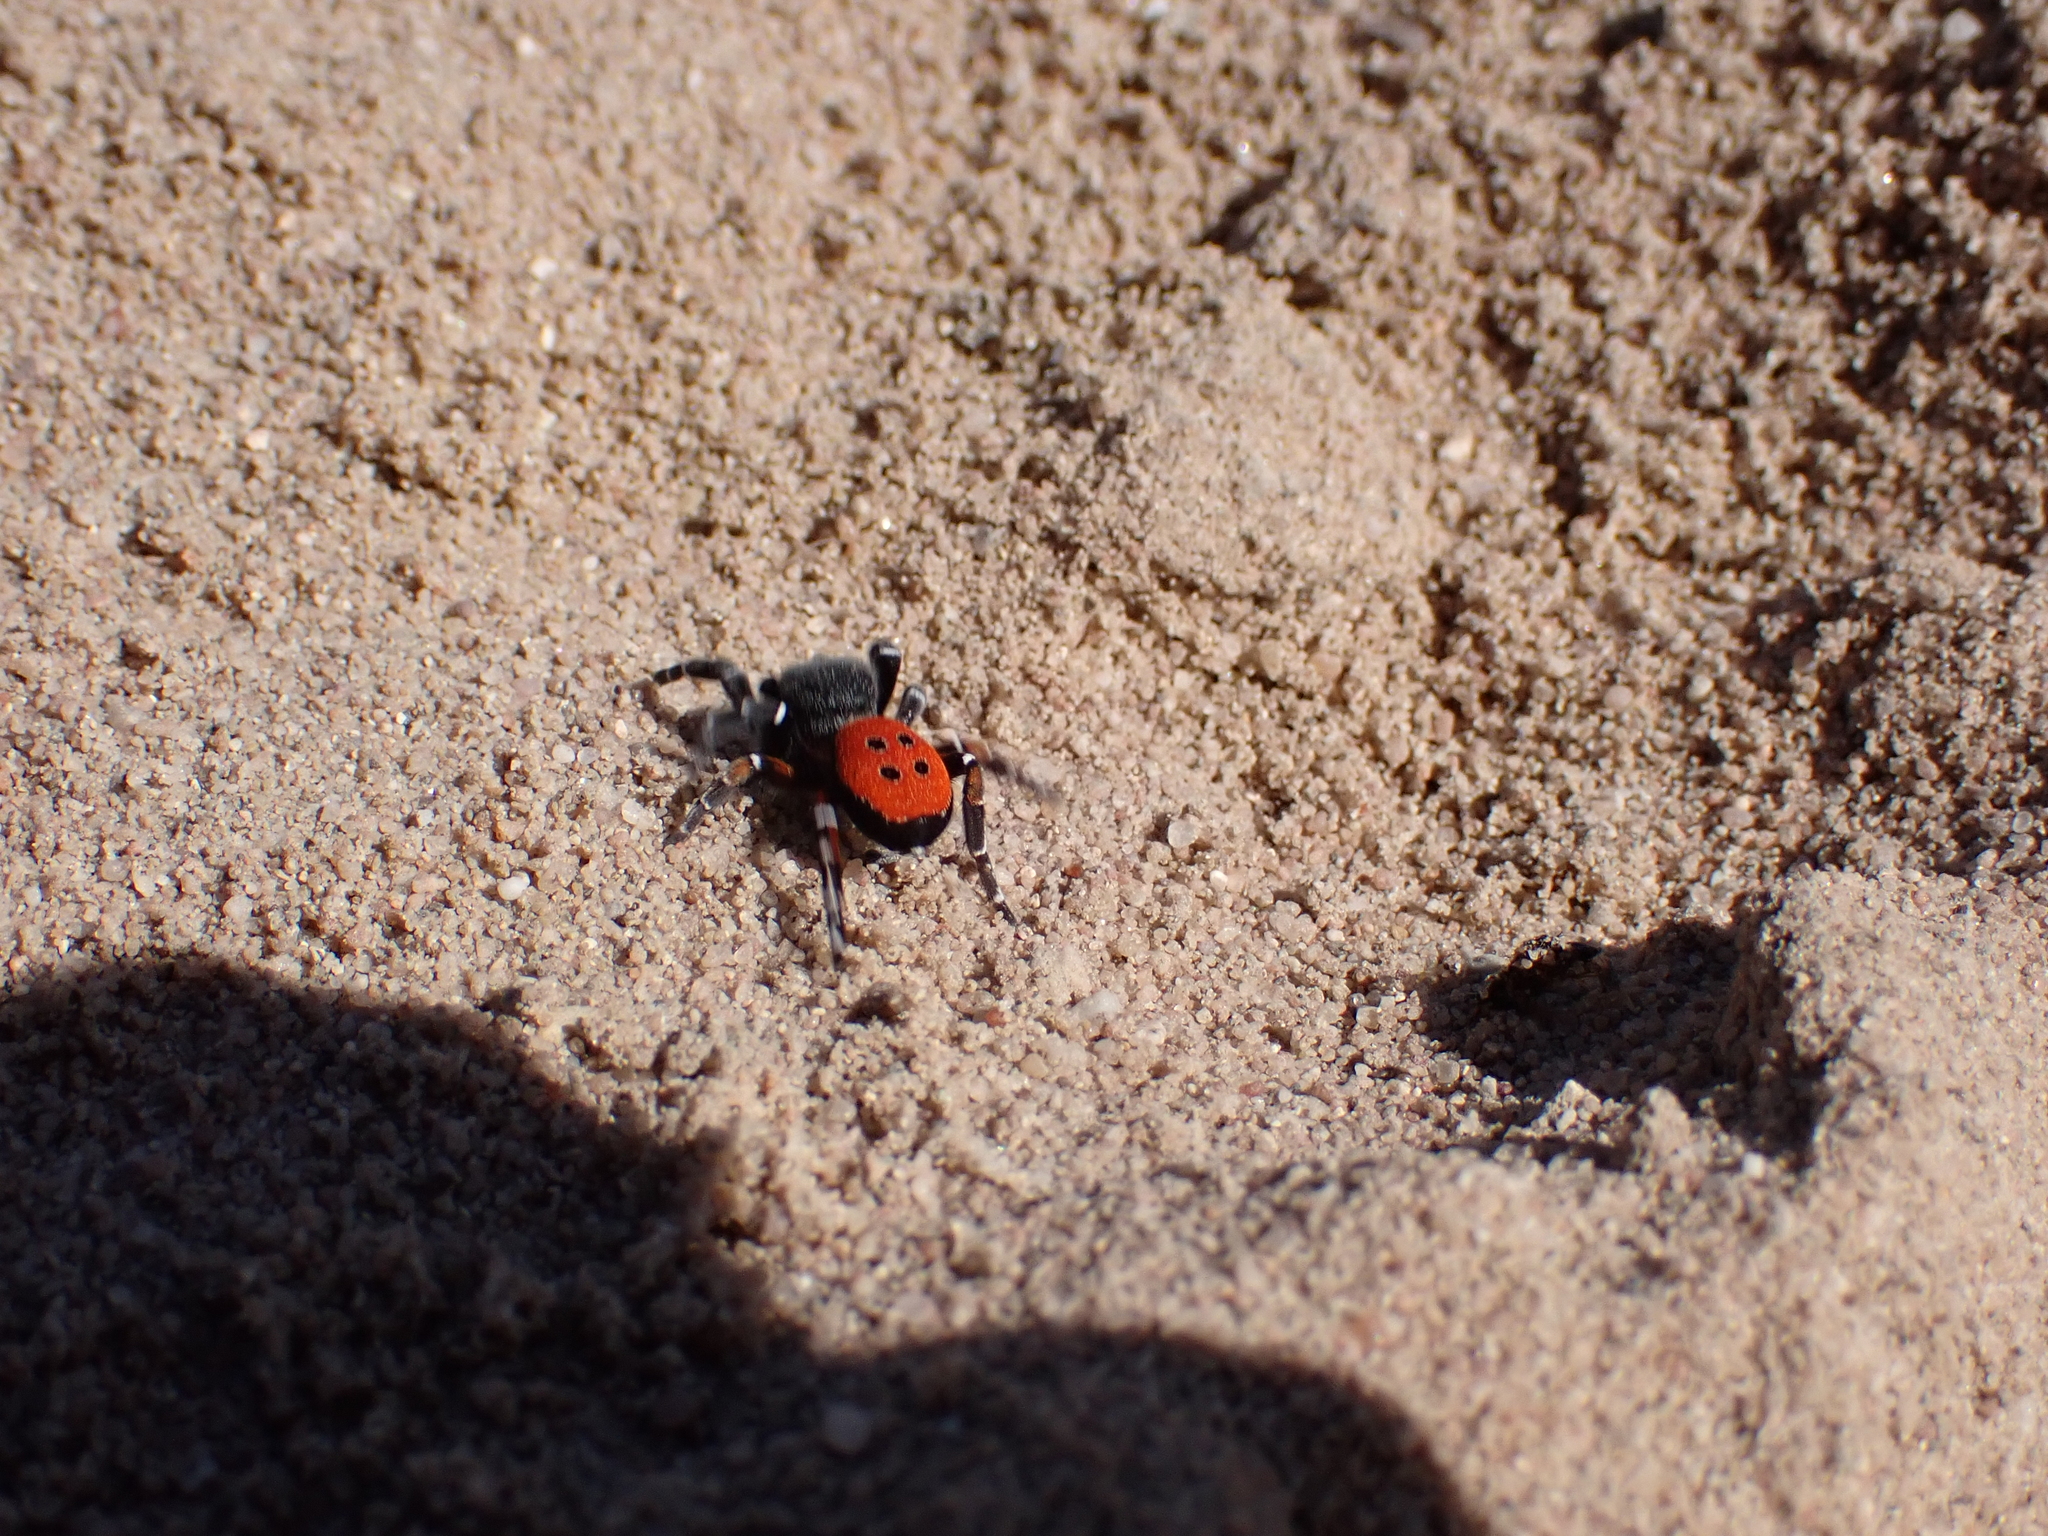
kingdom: Animalia
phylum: Arthropoda
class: Arachnida
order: Araneae
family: Eresidae
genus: Eresus
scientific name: Eresus kollari
